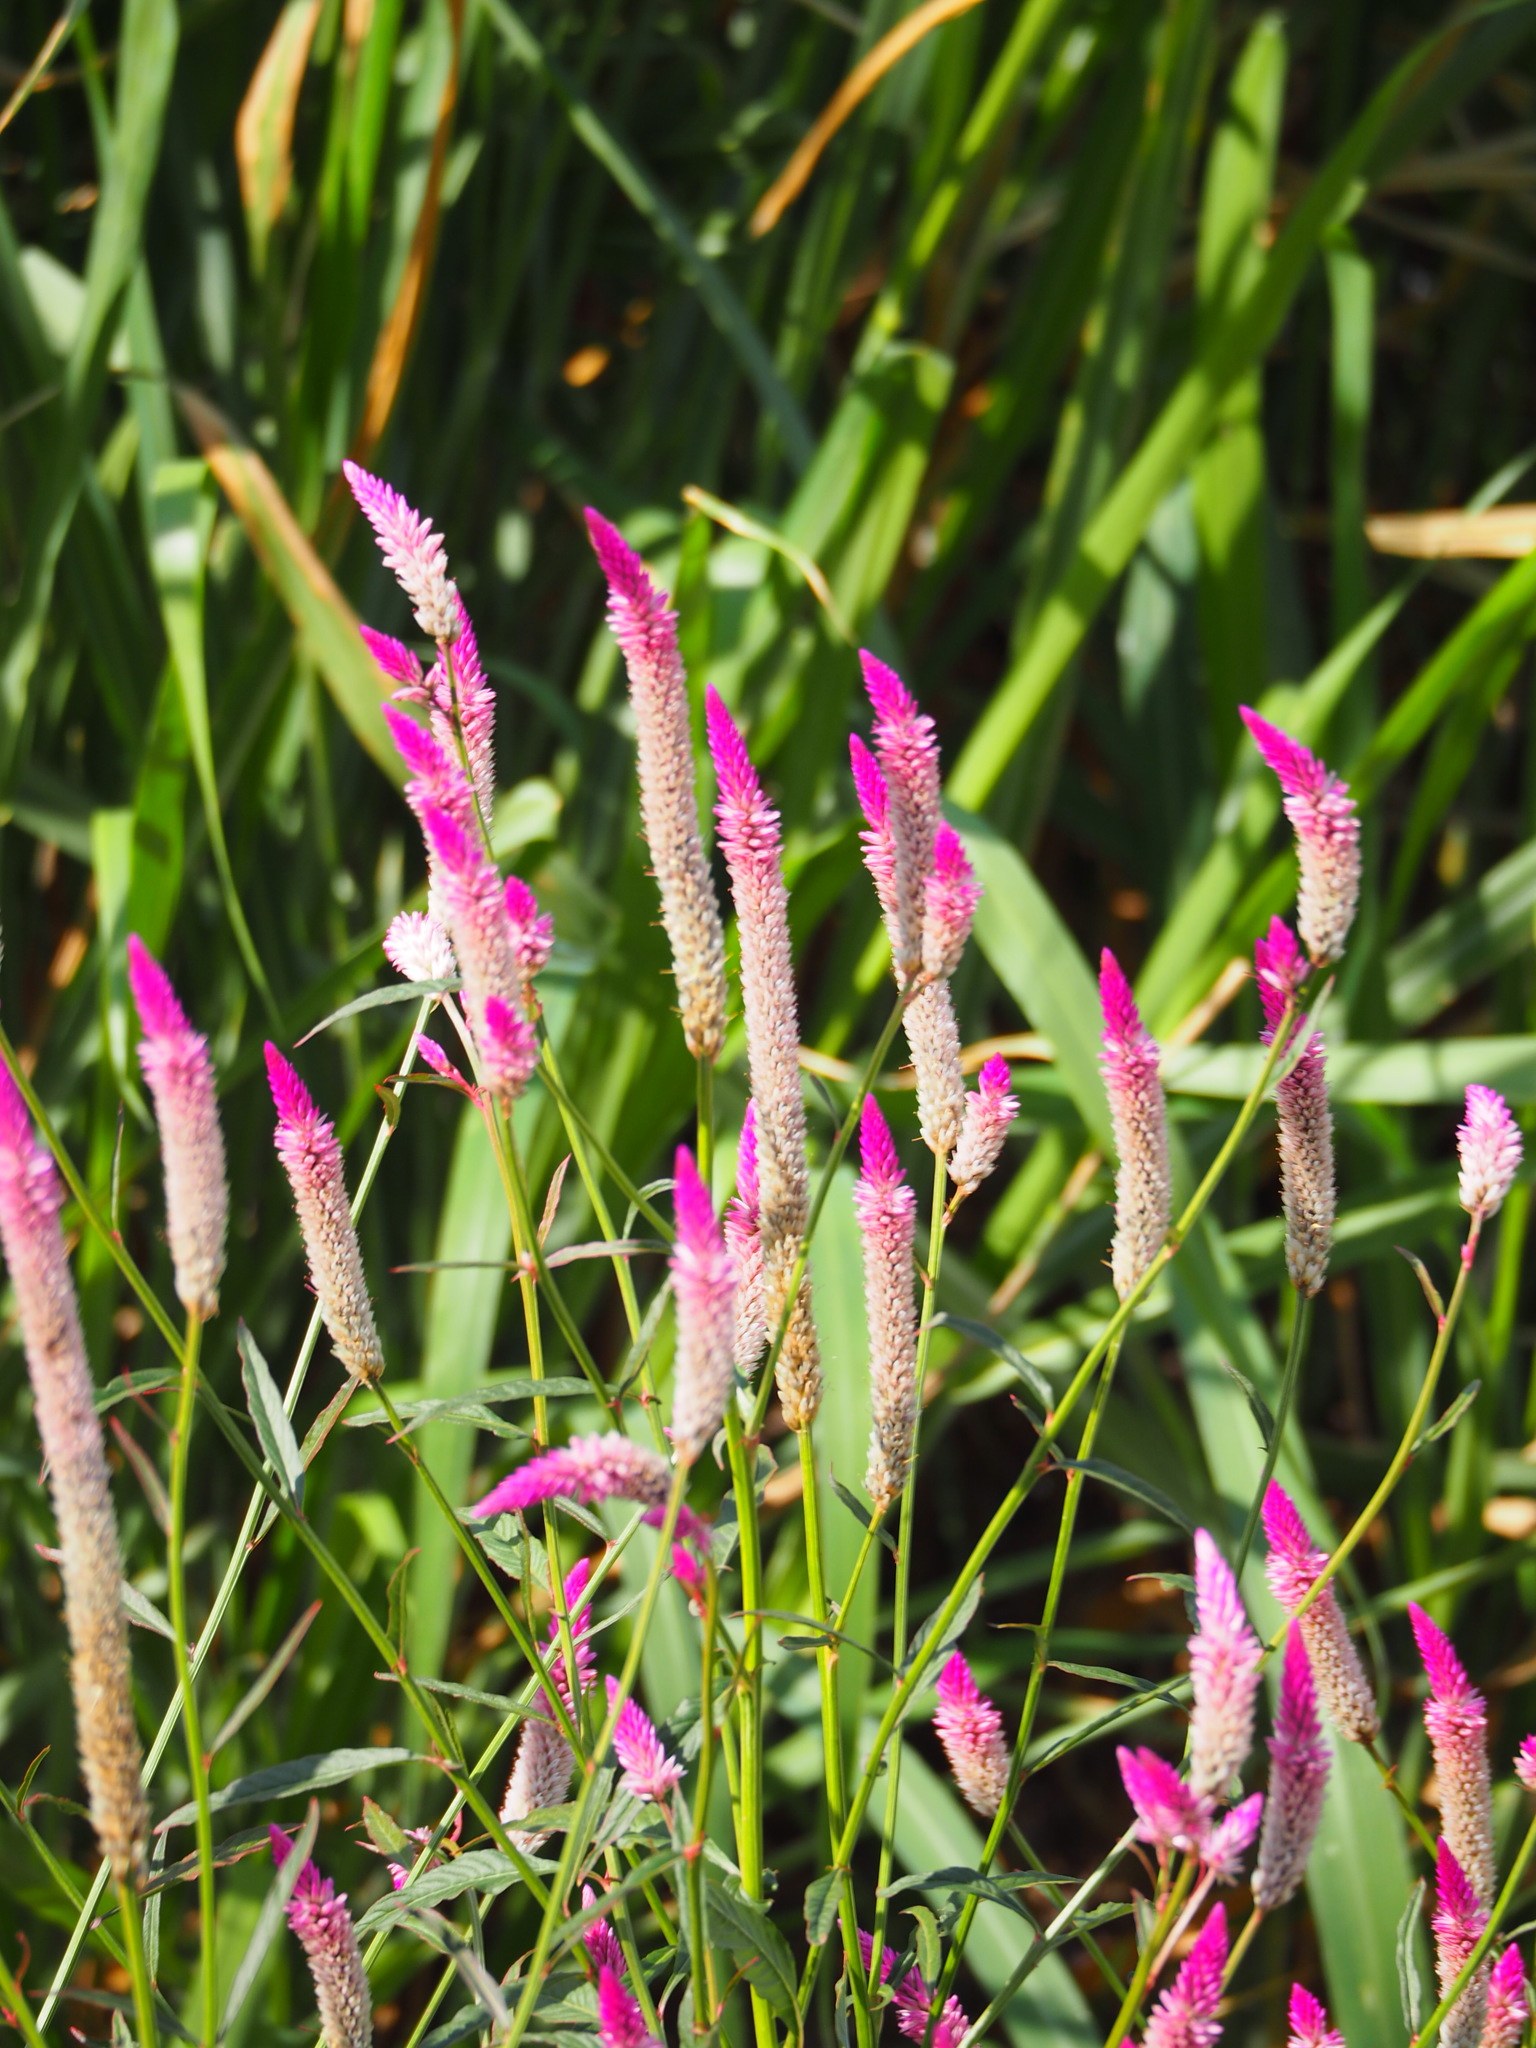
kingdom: Plantae
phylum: Tracheophyta
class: Magnoliopsida
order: Caryophyllales
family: Amaranthaceae
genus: Celosia
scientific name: Celosia argentea
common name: Feather cockscomb
